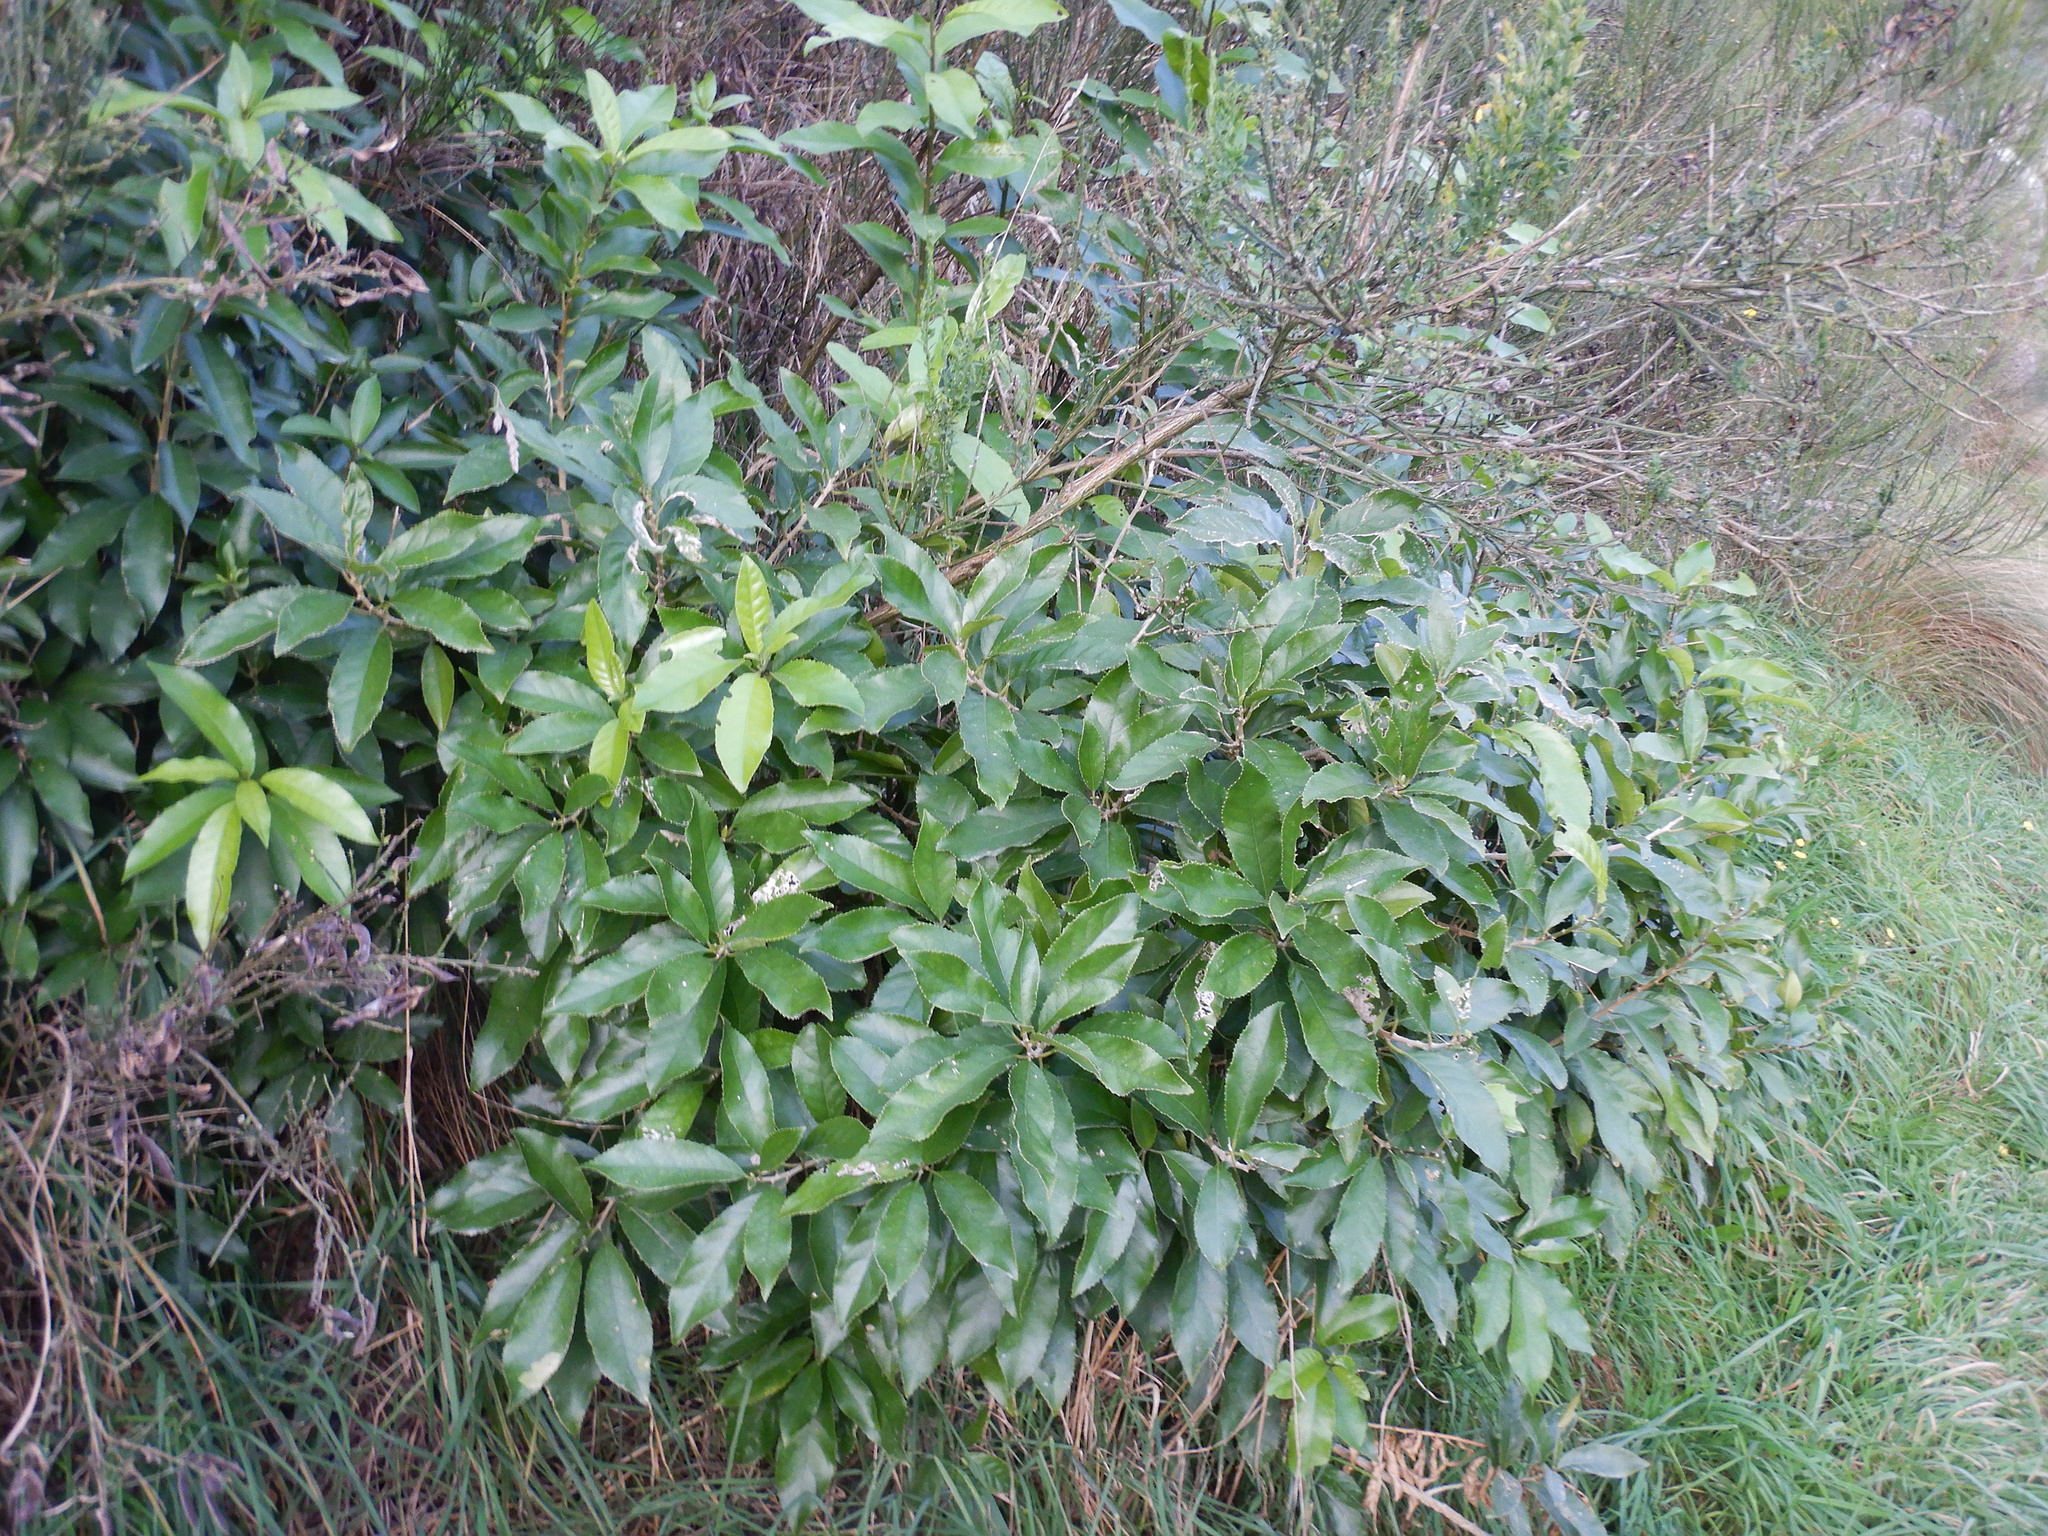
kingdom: Plantae
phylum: Tracheophyta
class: Magnoliopsida
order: Malpighiales
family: Violaceae
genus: Melicytus
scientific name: Melicytus ramiflorus
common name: Mahoe
